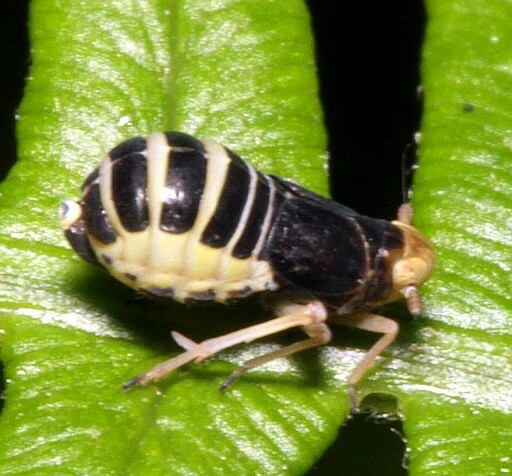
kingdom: Animalia
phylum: Arthropoda
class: Insecta
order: Hemiptera
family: Delphacidae
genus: Ditropis
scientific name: Ditropis pteridis
